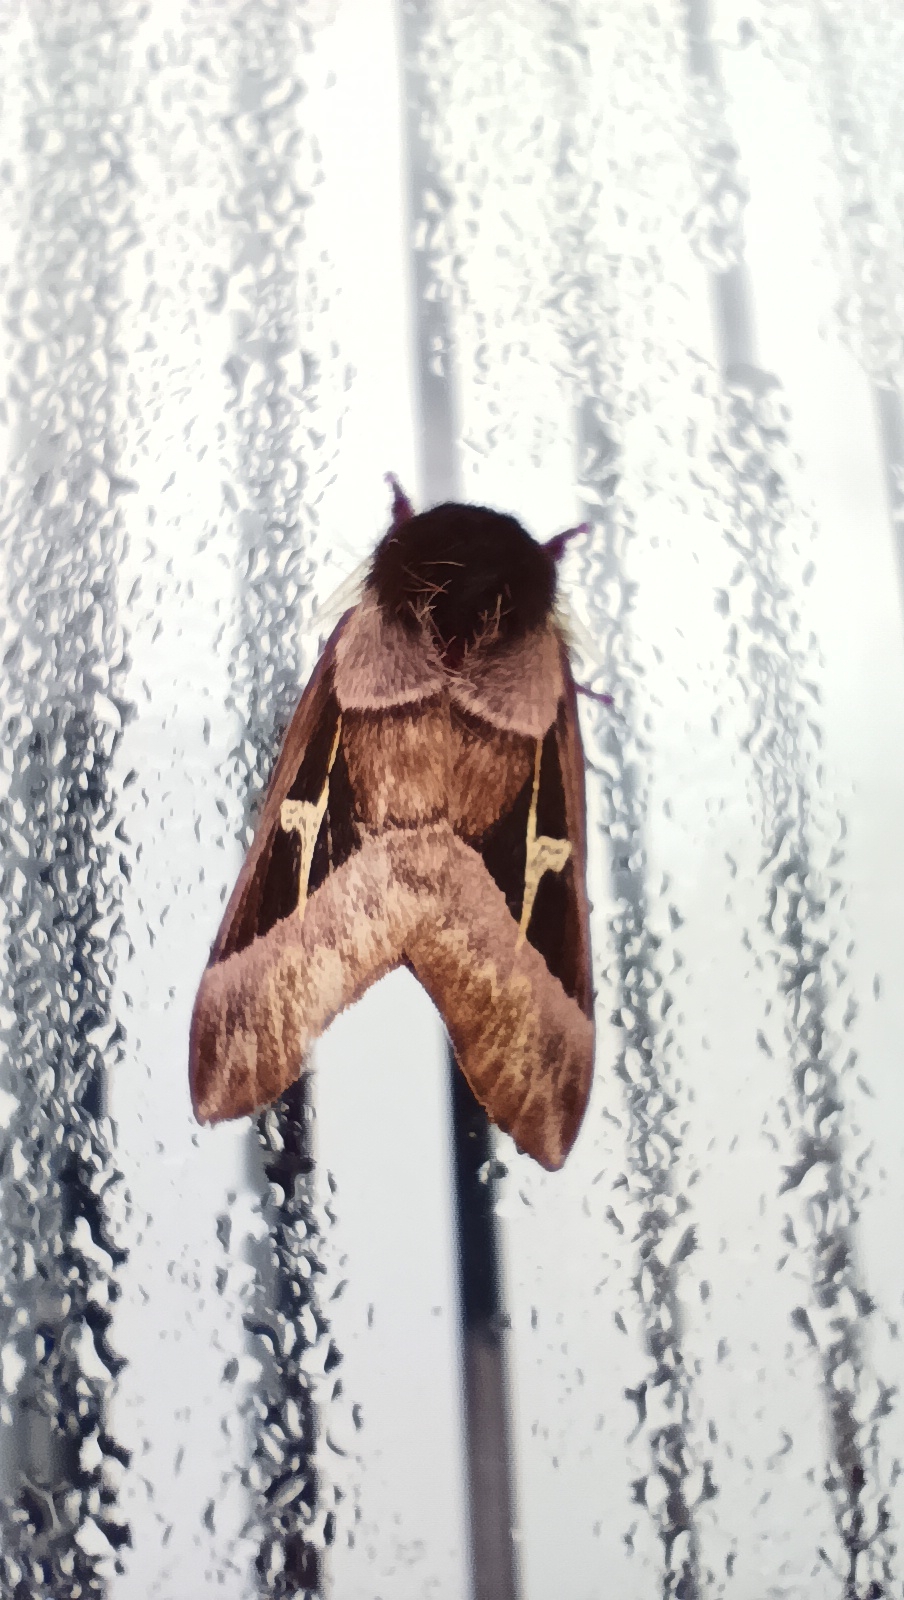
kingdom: Animalia
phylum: Arthropoda
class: Insecta
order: Lepidoptera
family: Saturniidae
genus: Dirphiopsis
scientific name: Dirphiopsis delta
